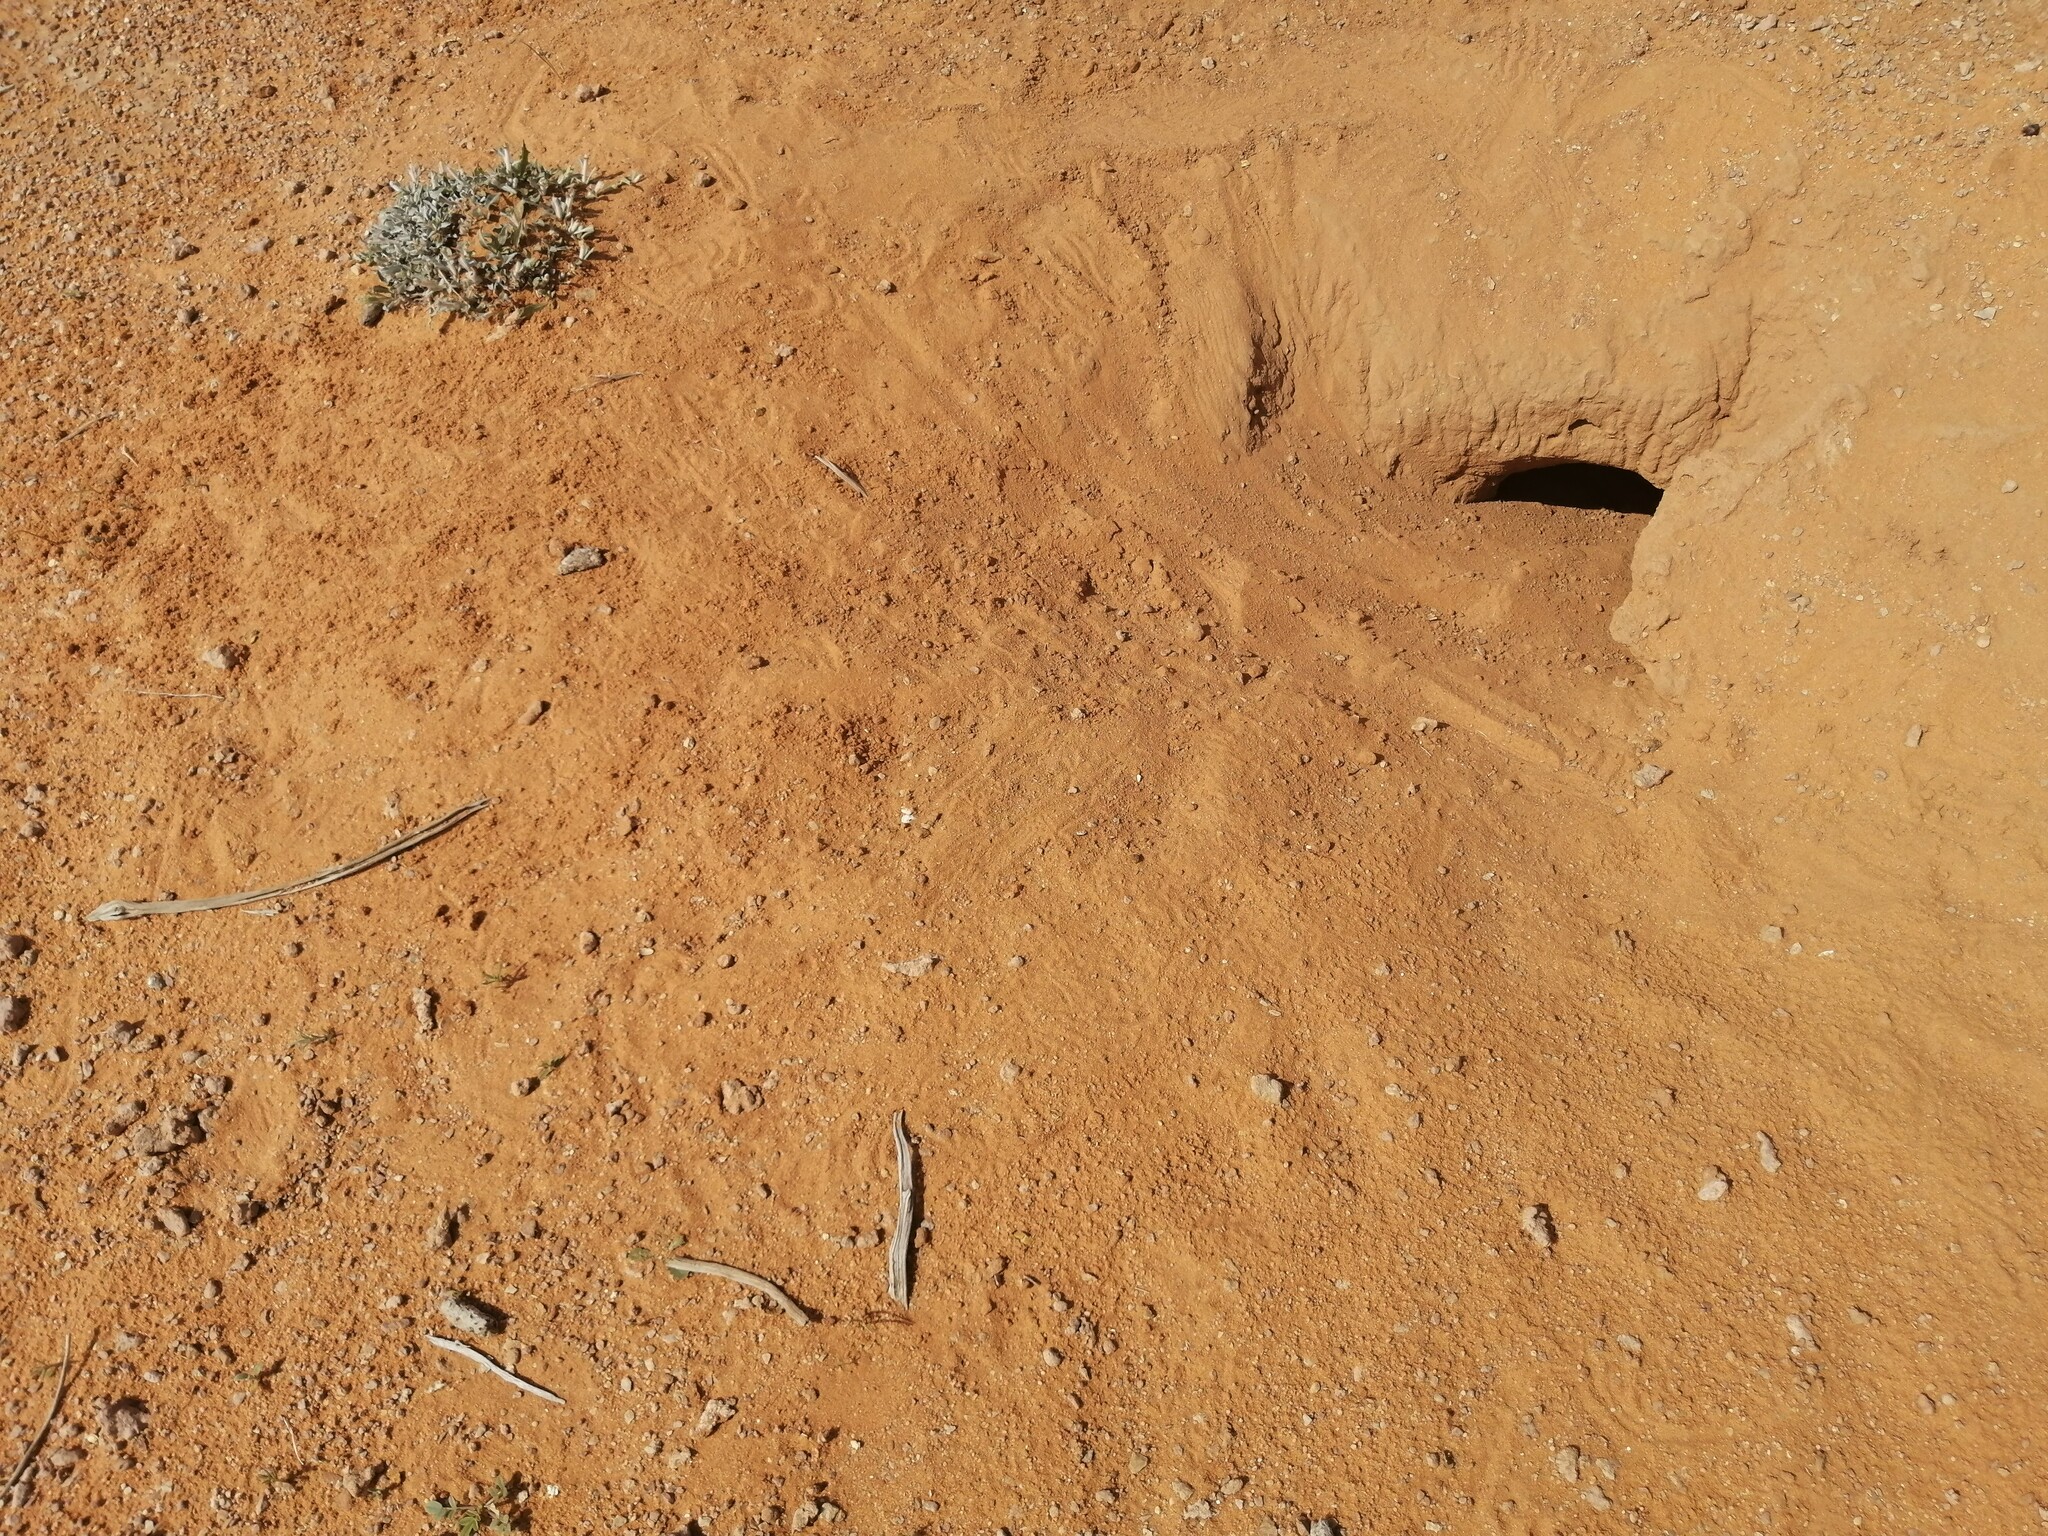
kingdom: Animalia
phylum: Chordata
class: Squamata
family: Agamidae
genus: Uromastyx
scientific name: Uromastyx aegyptia
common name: Egyptian mastigure
